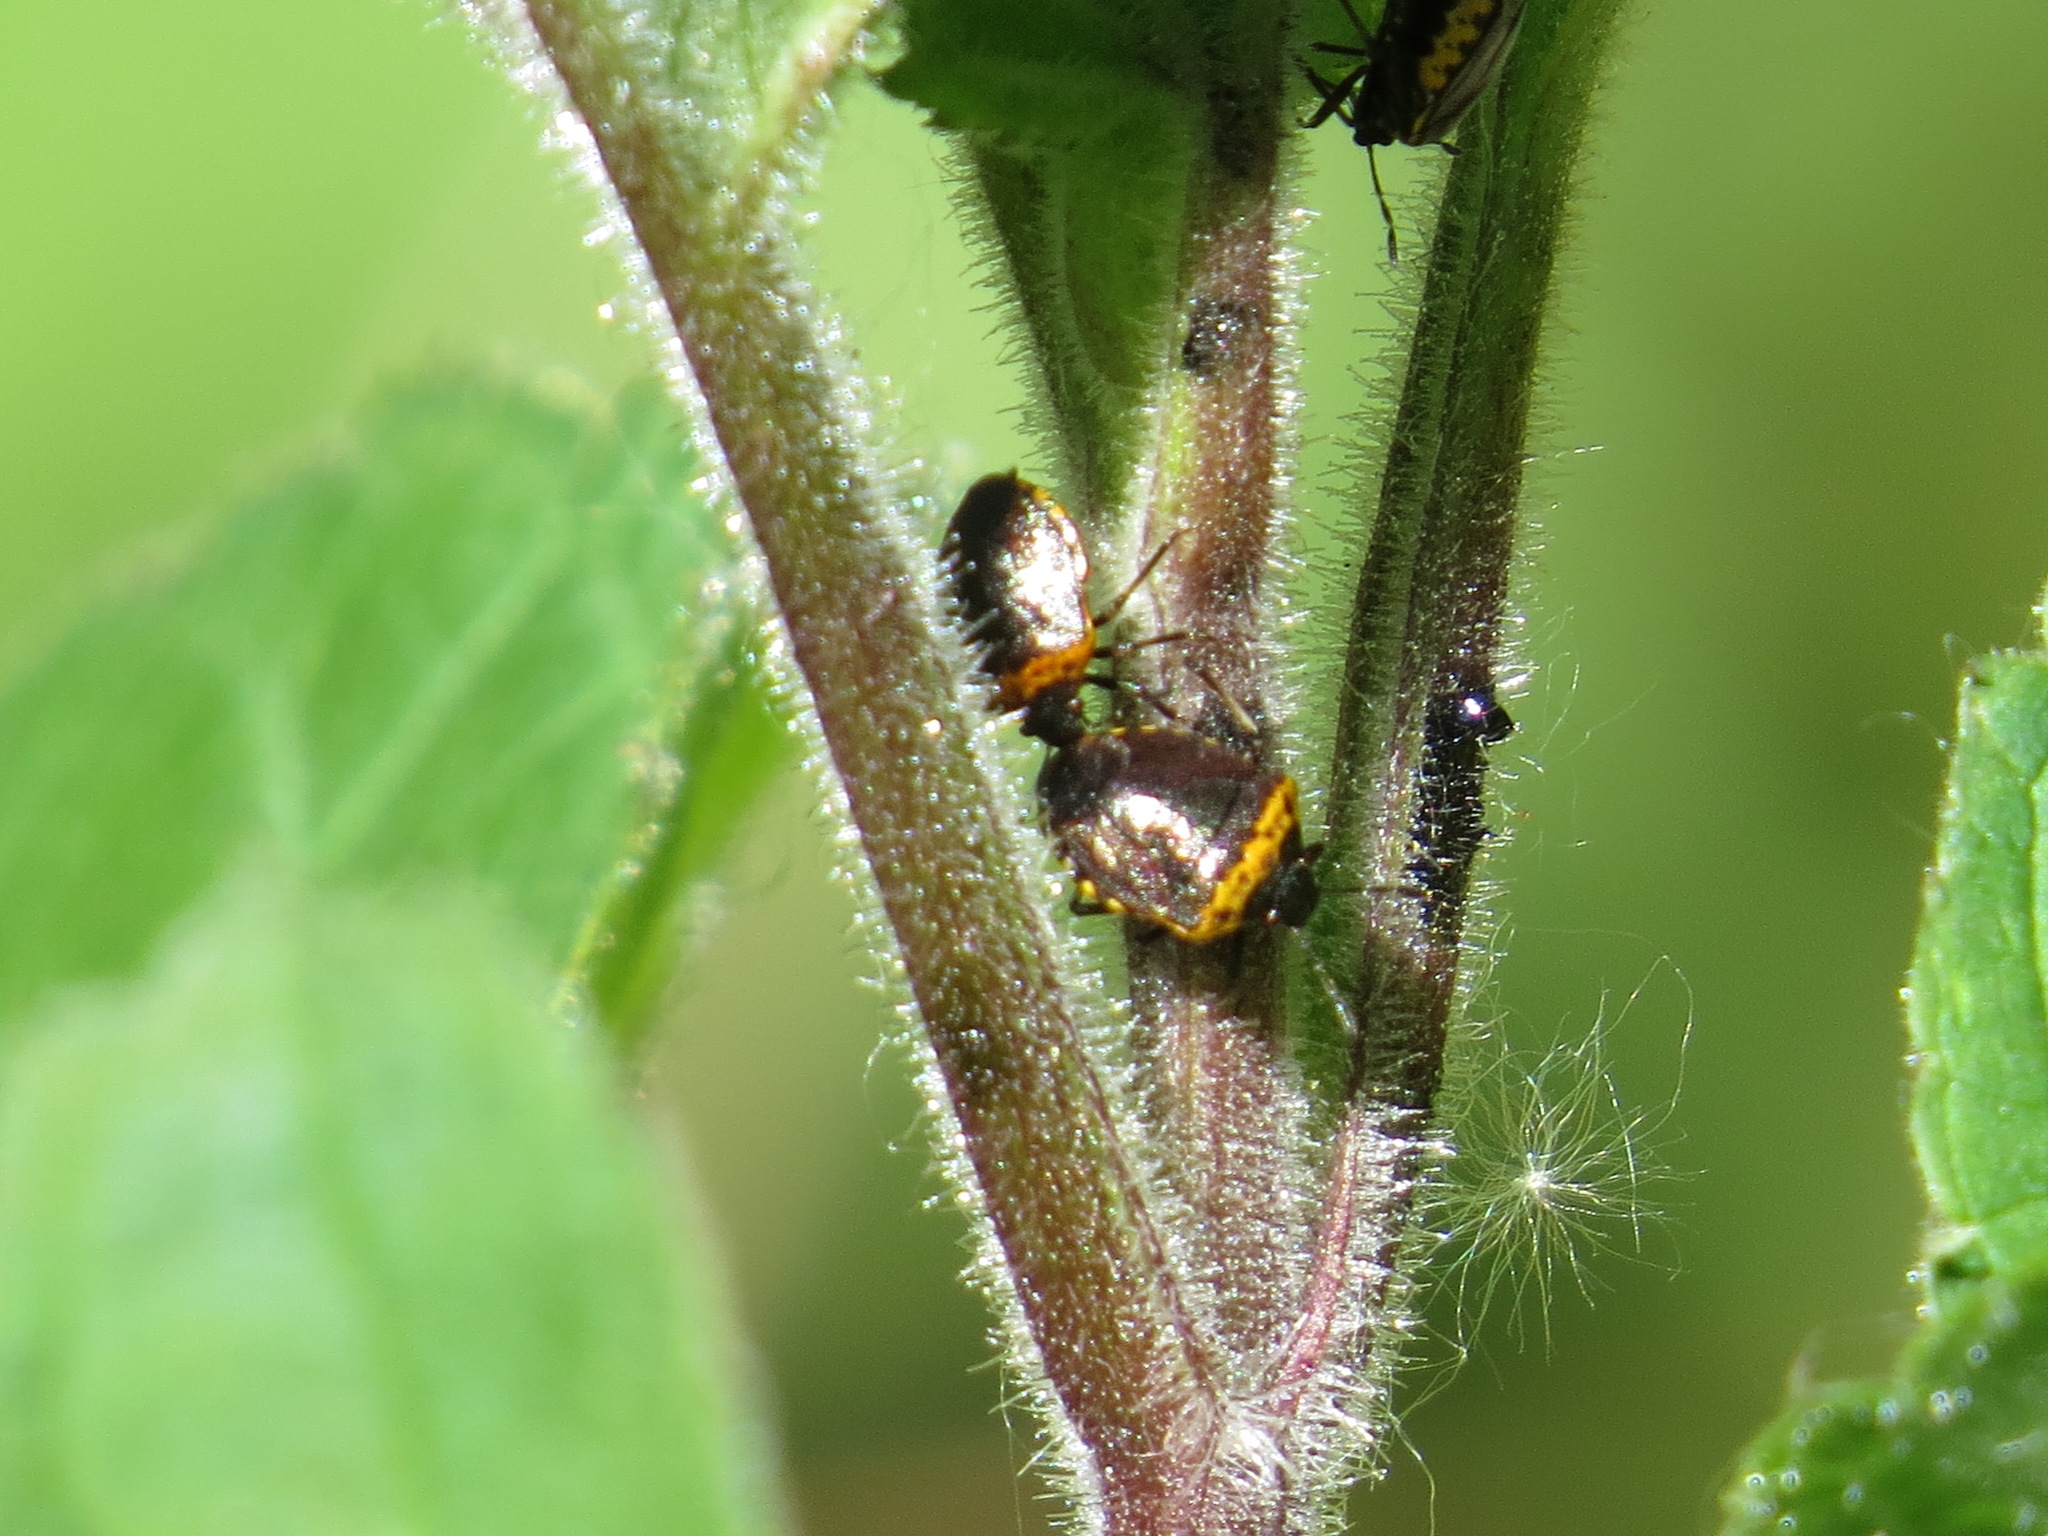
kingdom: Animalia
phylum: Arthropoda
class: Insecta
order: Hemiptera
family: Pentatomidae
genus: Cosmopepla
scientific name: Cosmopepla uhleri
